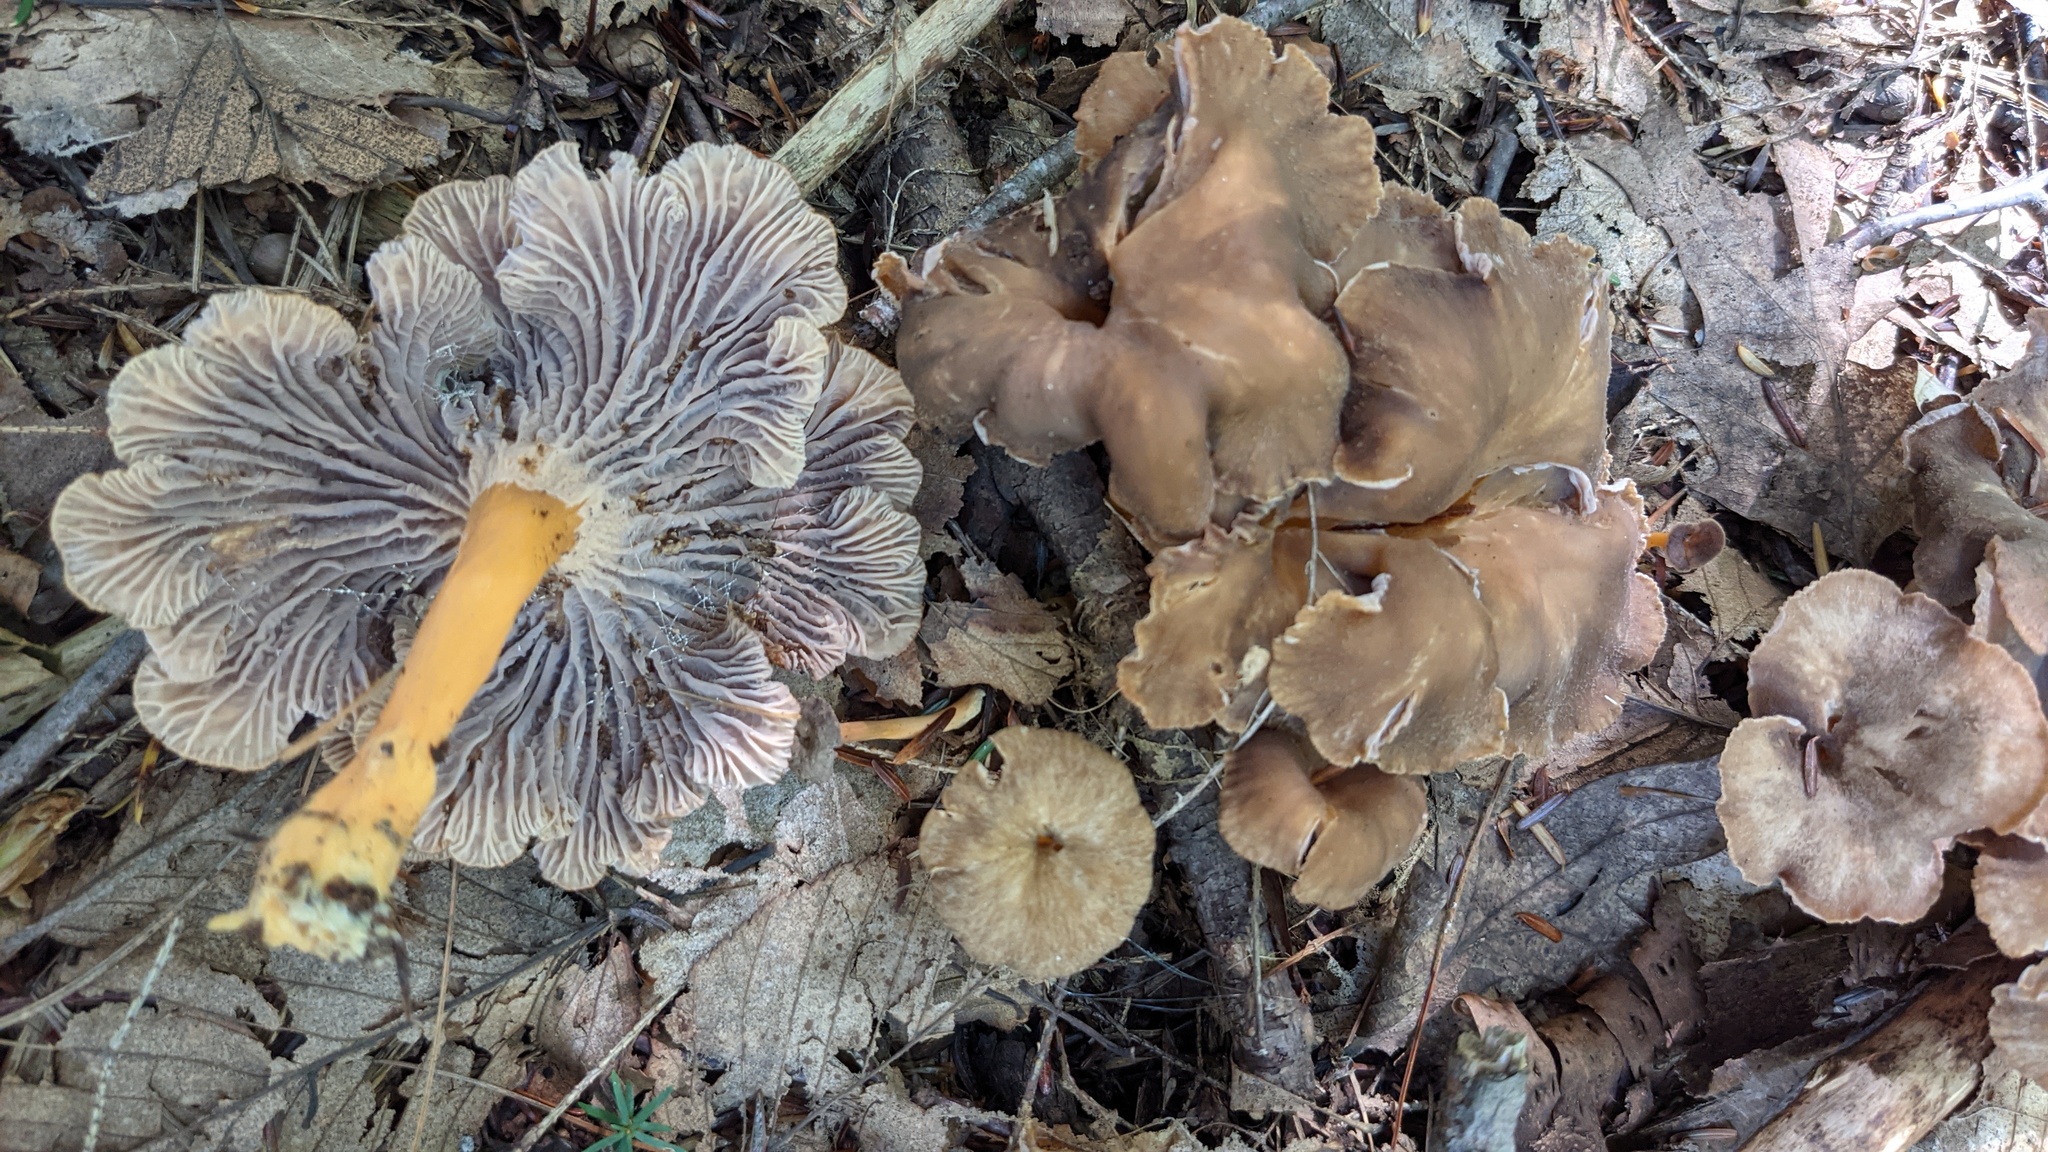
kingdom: Fungi
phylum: Basidiomycota
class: Agaricomycetes
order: Cantharellales
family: Hydnaceae
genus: Craterellus
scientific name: Craterellus tubaeformis
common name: Yellowfoot
